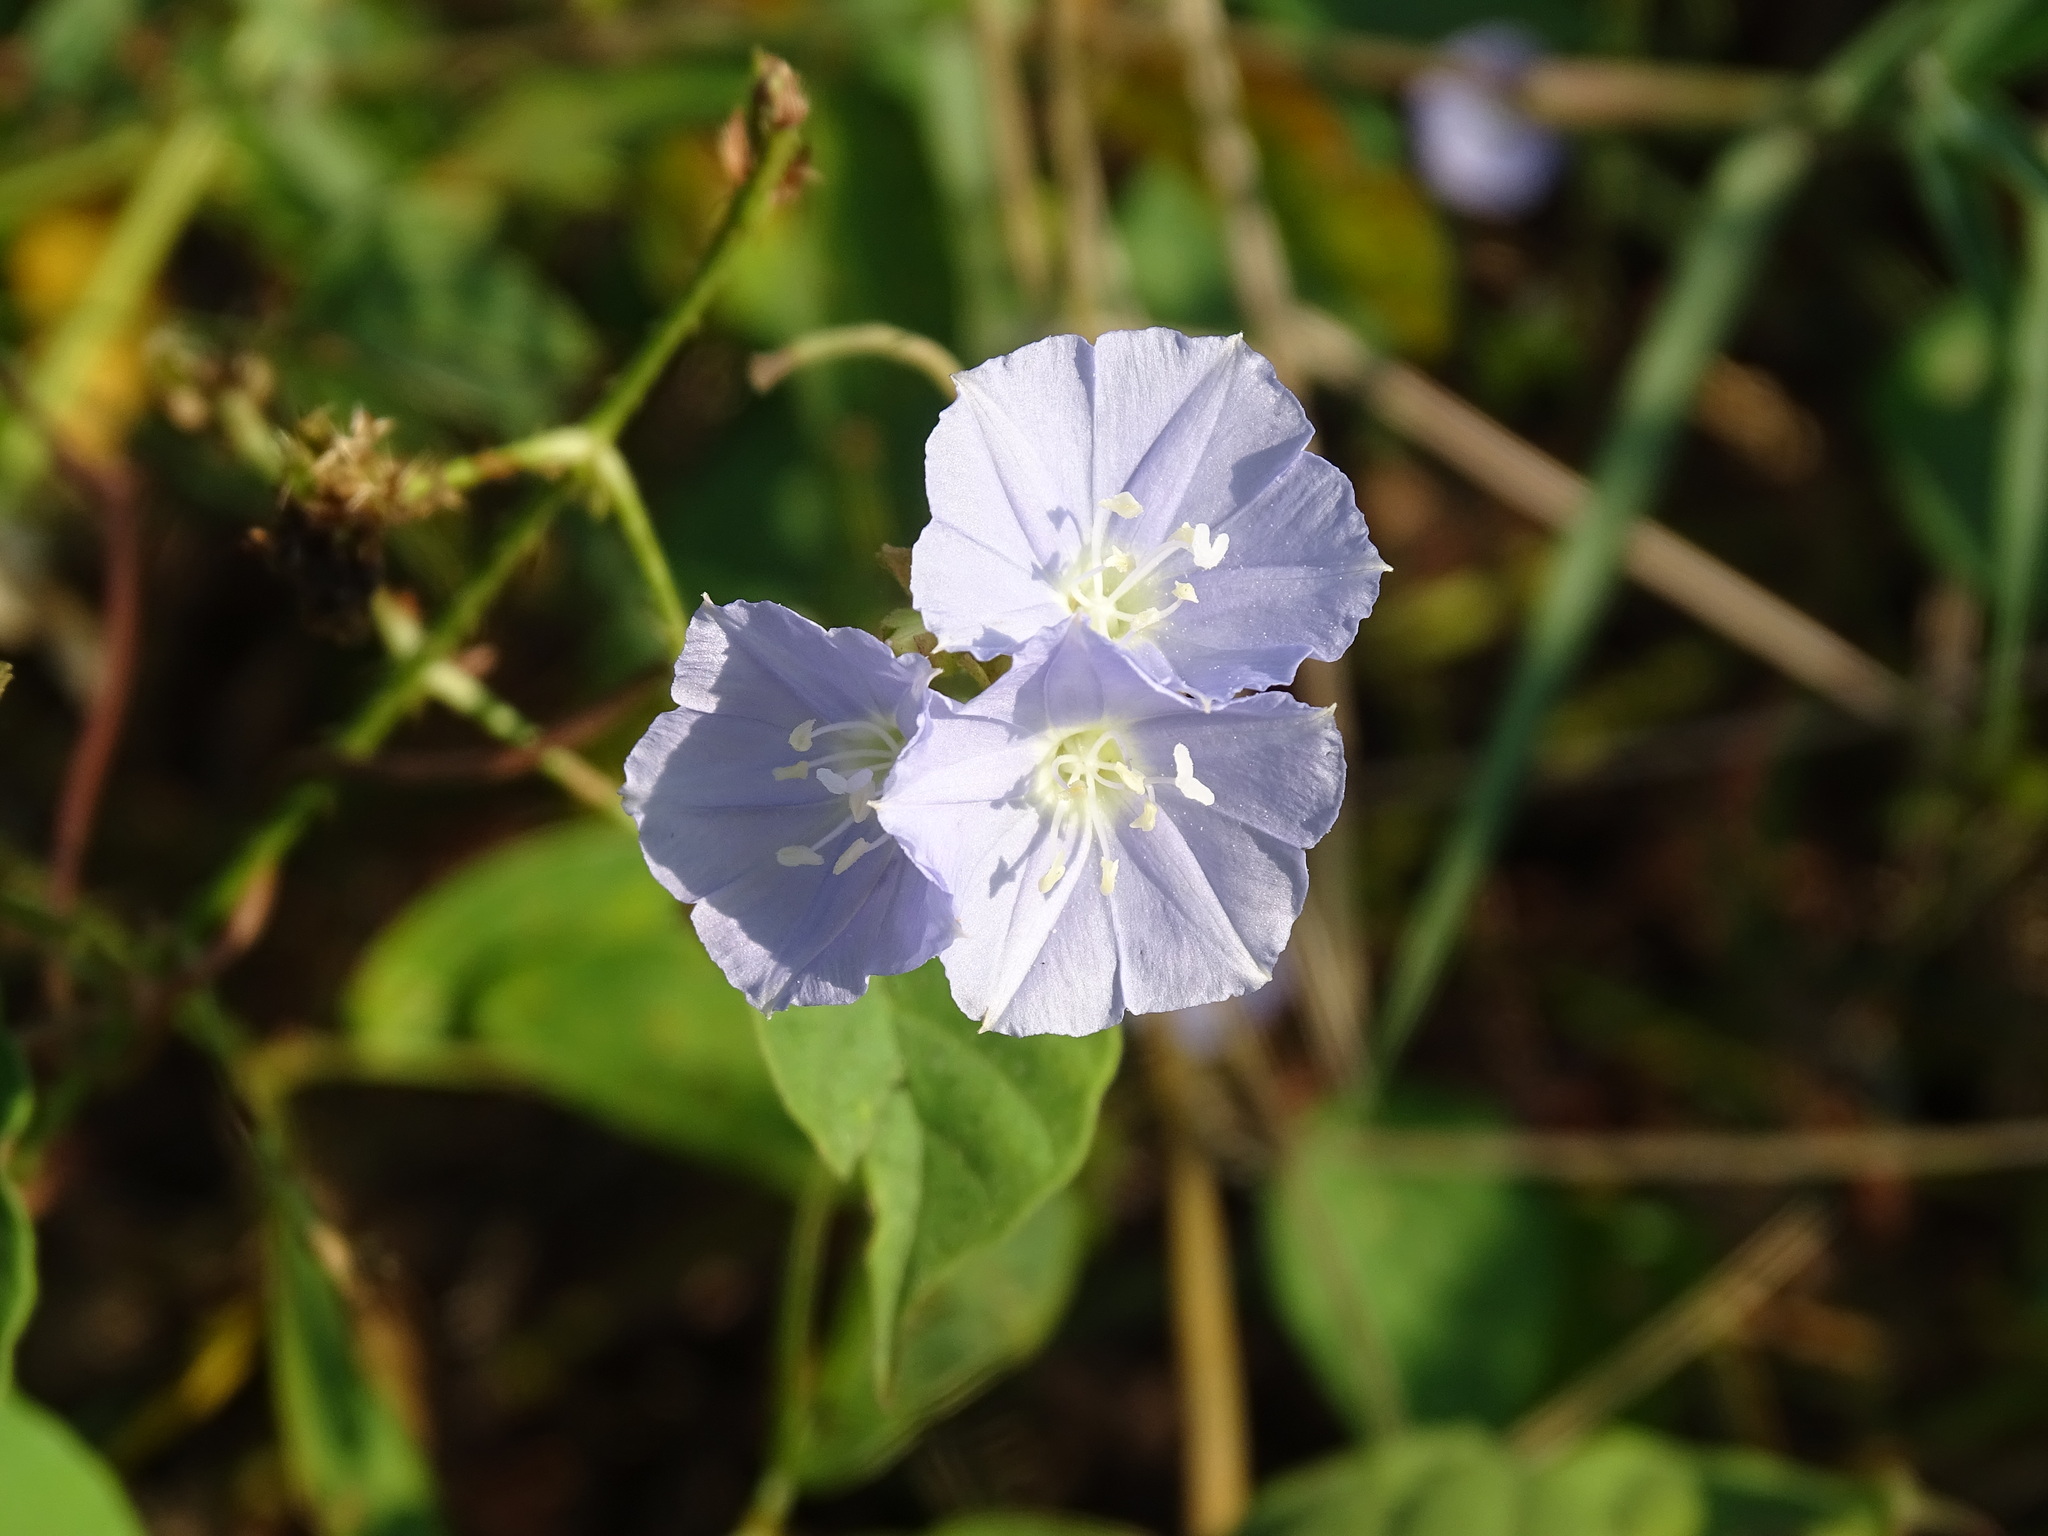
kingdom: Plantae
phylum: Tracheophyta
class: Magnoliopsida
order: Solanales
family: Convolvulaceae
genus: Jacquemontia
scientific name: Jacquemontia oaxacana
